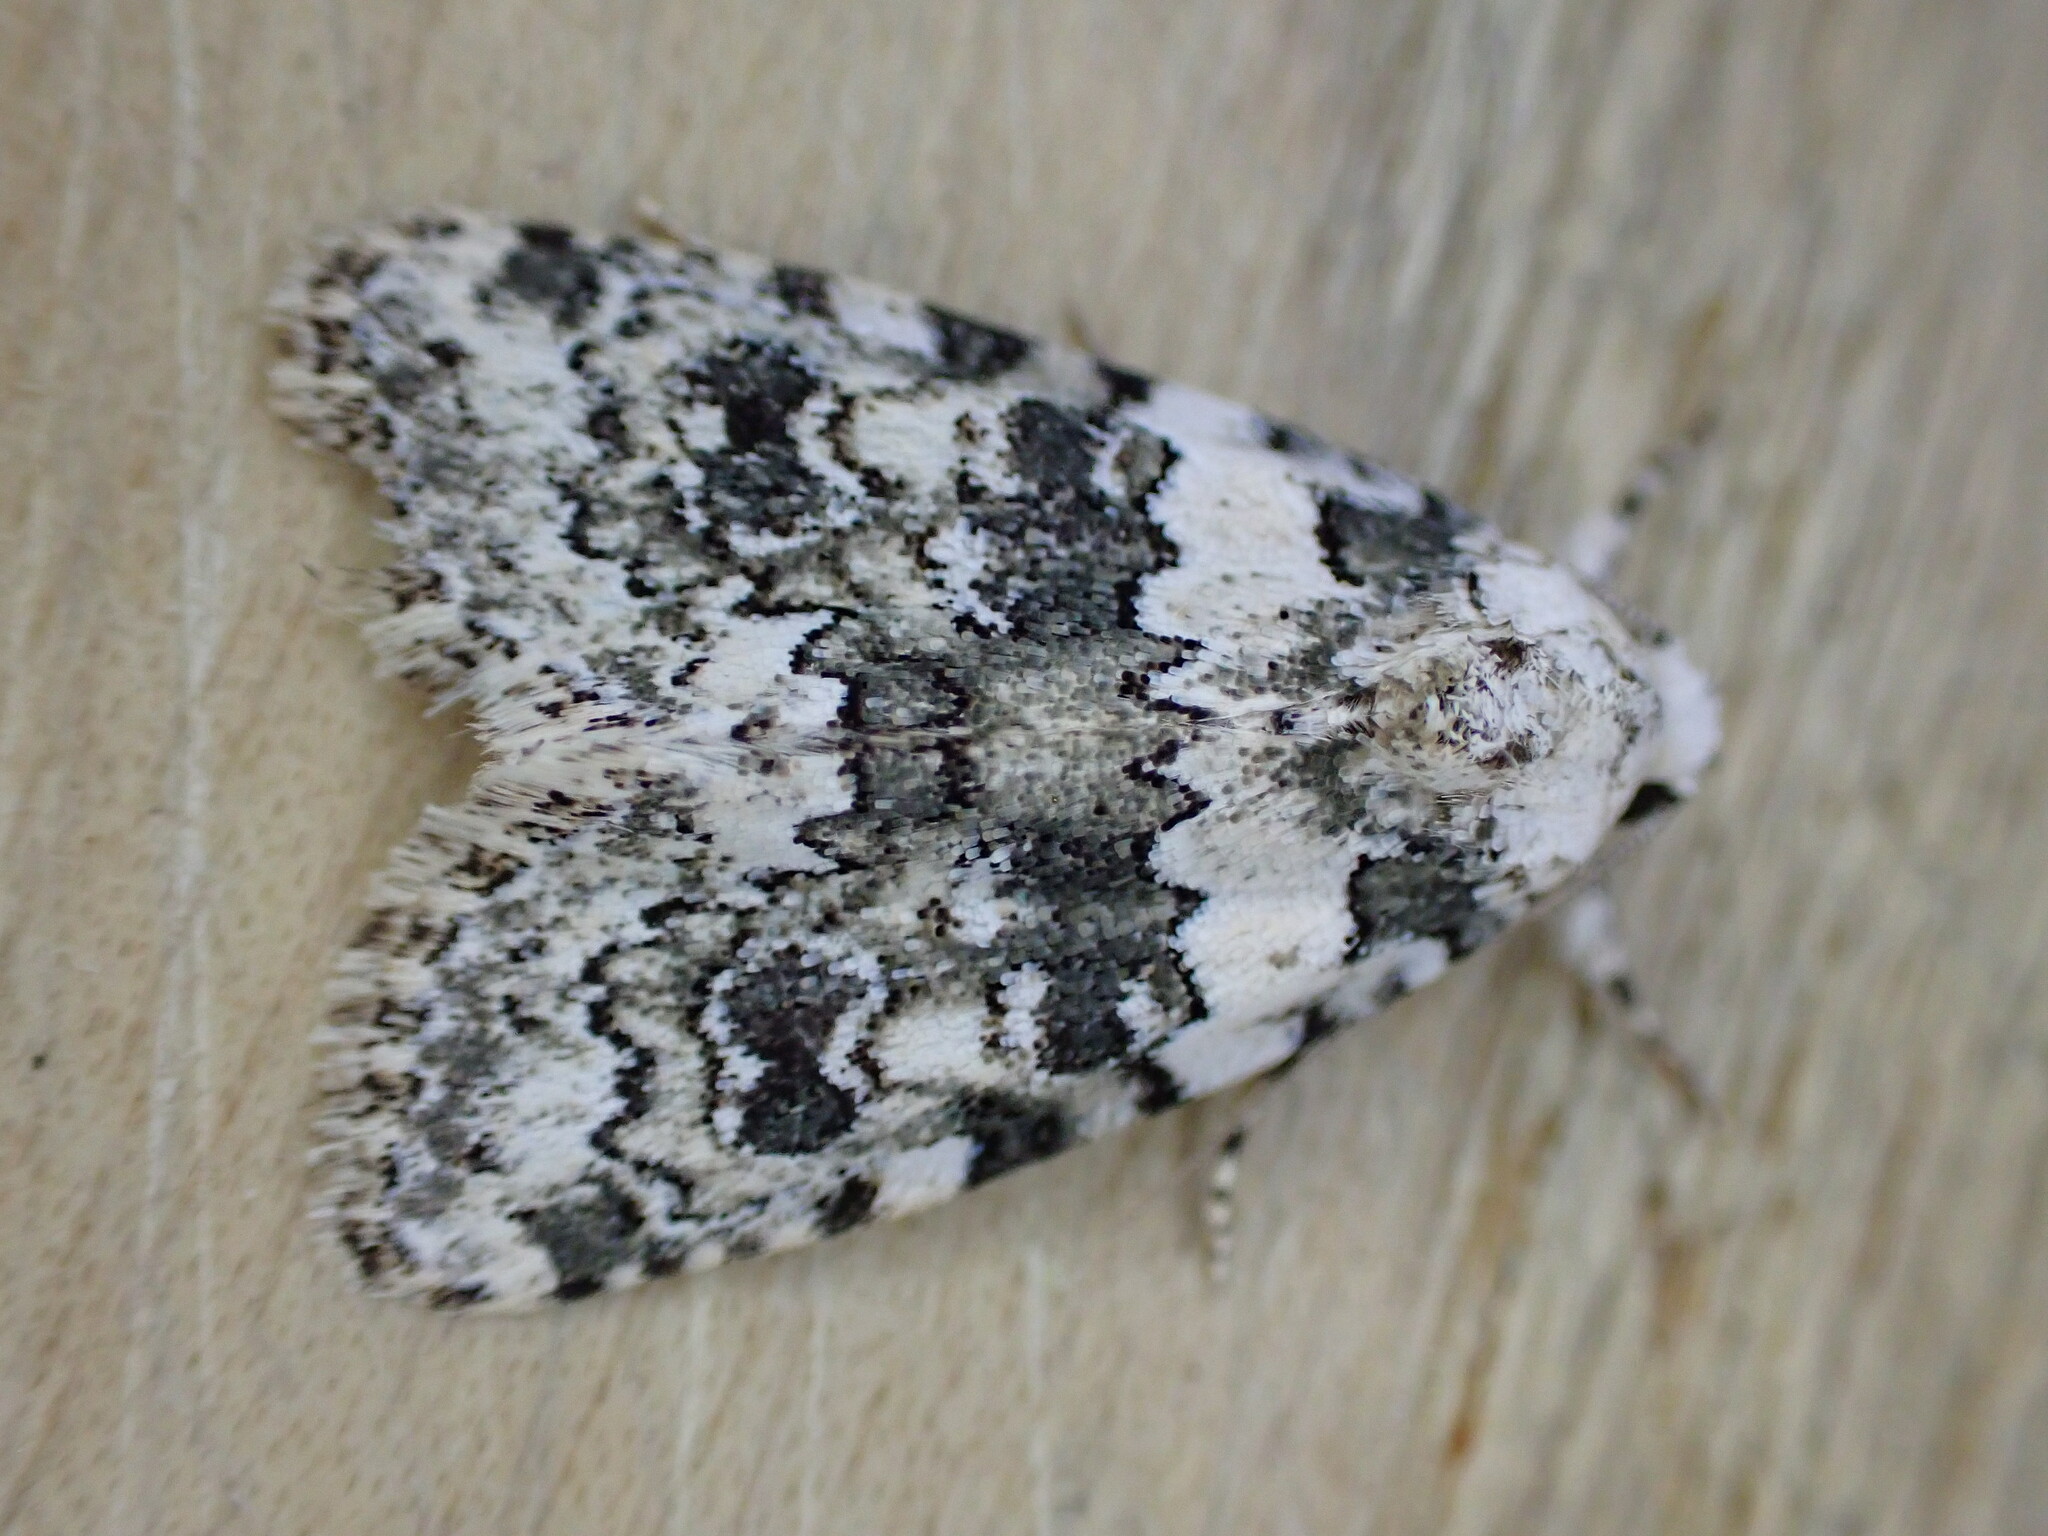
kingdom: Animalia
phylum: Arthropoda
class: Insecta
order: Lepidoptera
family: Noctuidae
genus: Bryophila
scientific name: Bryophila domestica
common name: Marbled beauty
